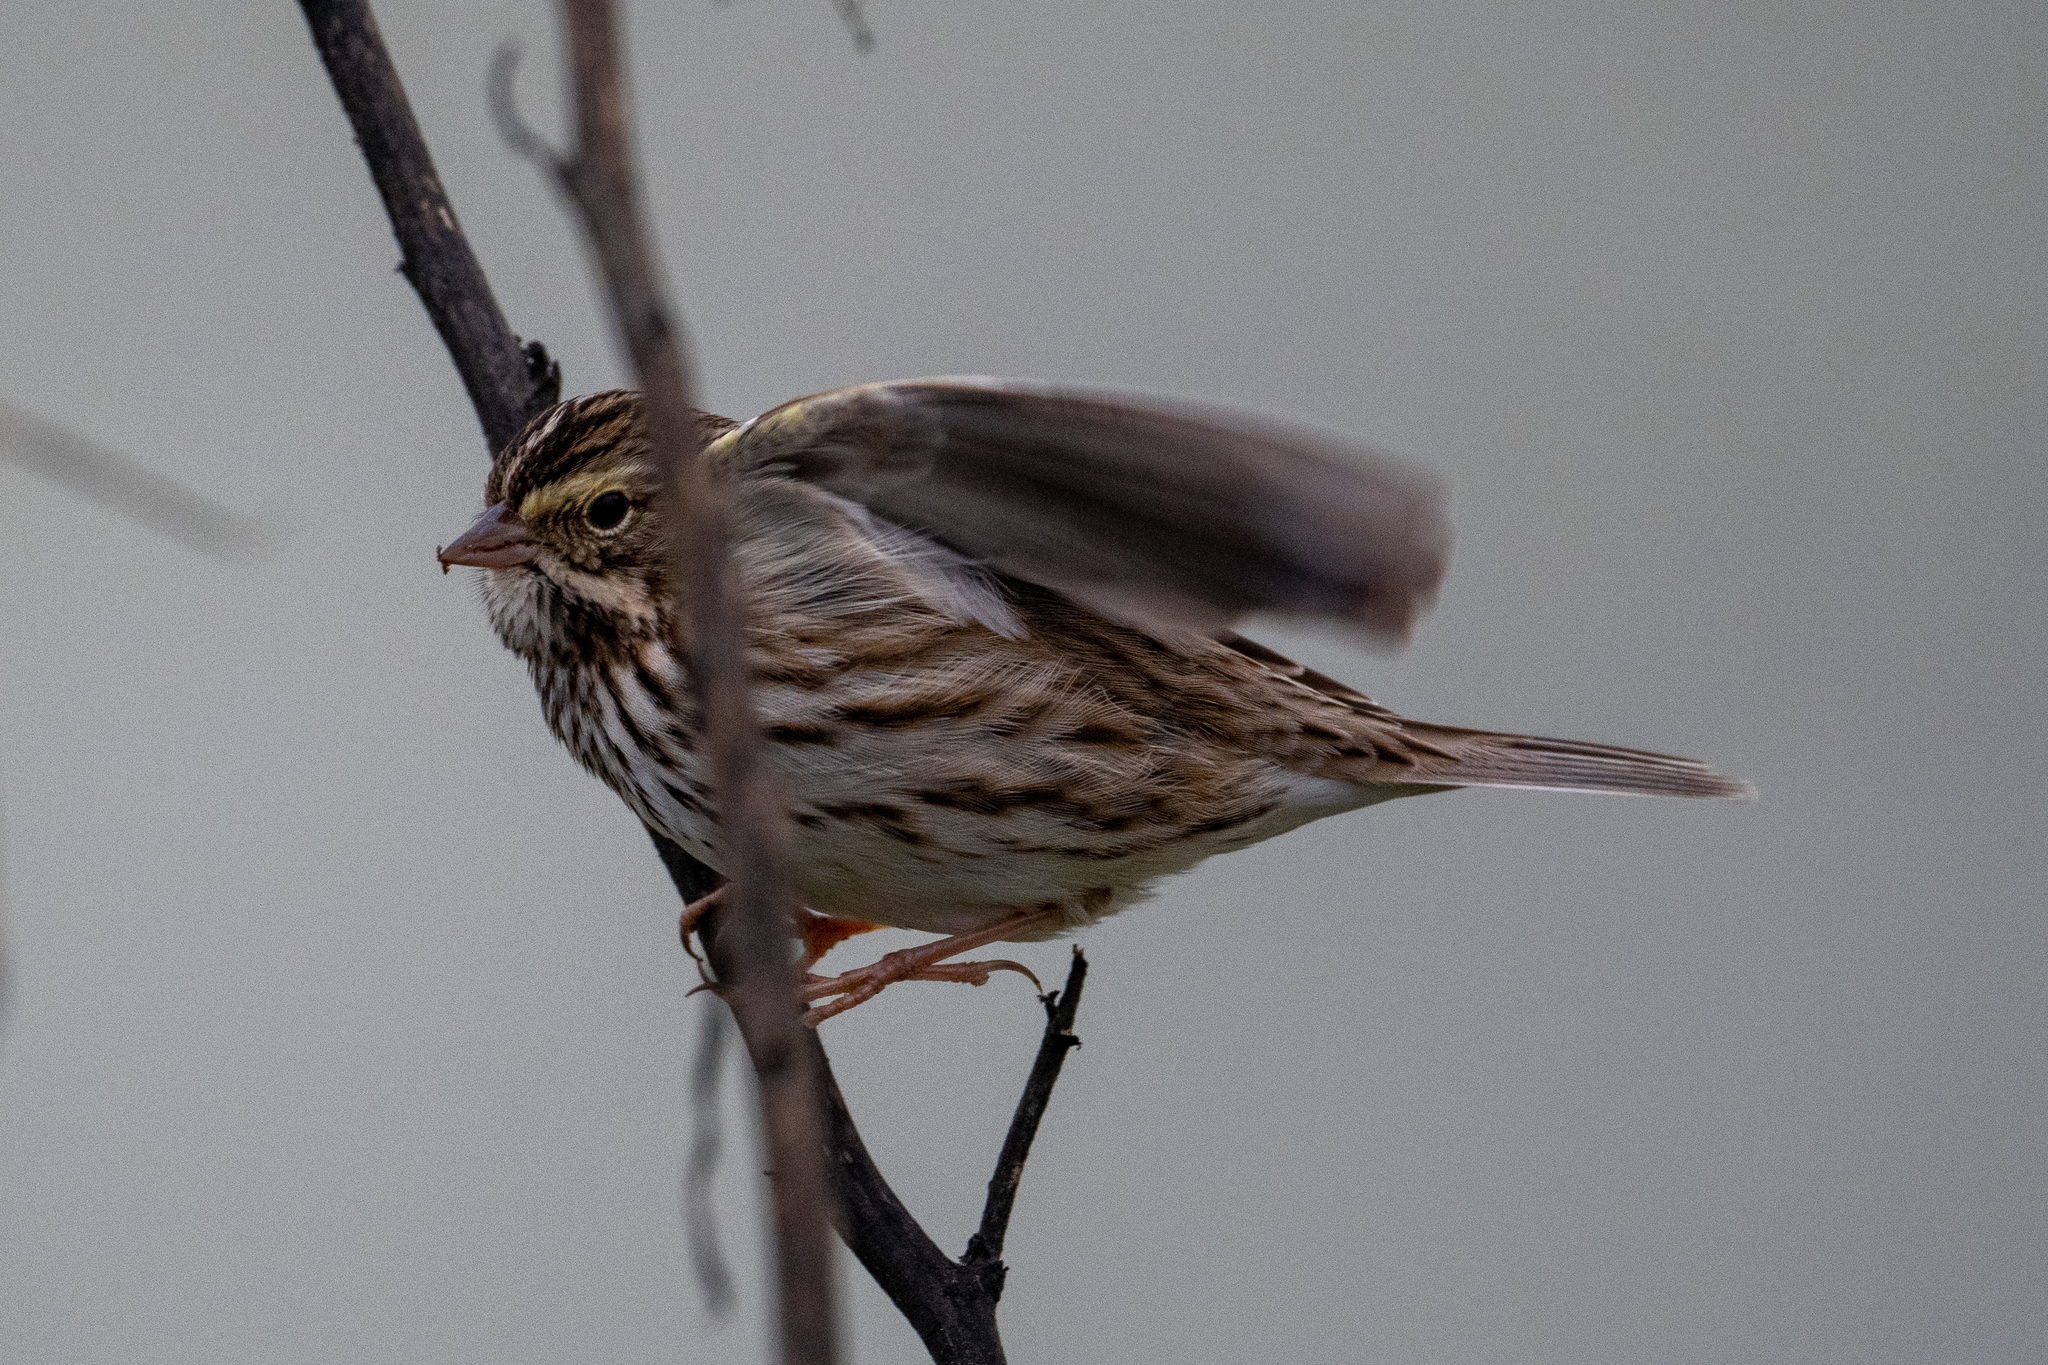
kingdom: Animalia
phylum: Chordata
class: Aves
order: Passeriformes
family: Passerellidae
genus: Passerculus
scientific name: Passerculus sandwichensis
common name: Savannah sparrow
